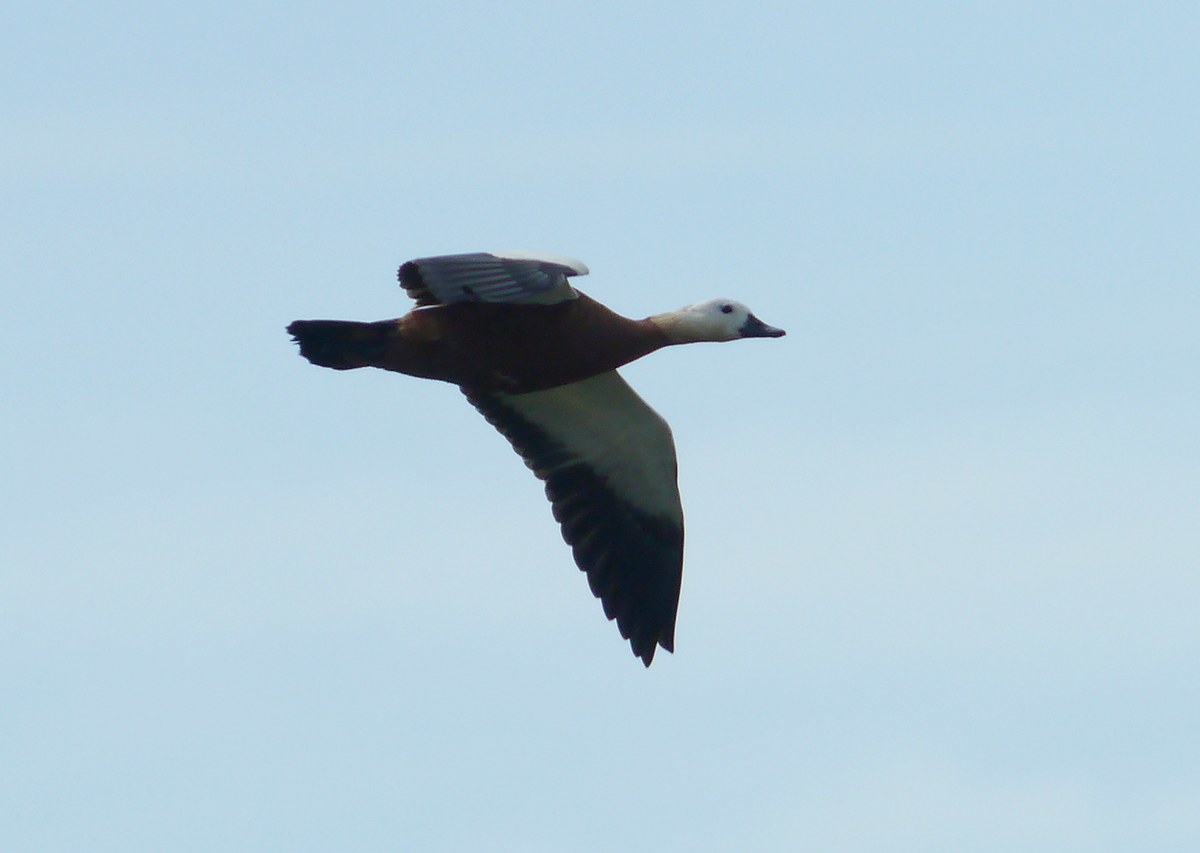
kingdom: Animalia
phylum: Chordata
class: Aves
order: Anseriformes
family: Anatidae
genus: Tadorna
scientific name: Tadorna ferruginea
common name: Ruddy shelduck
